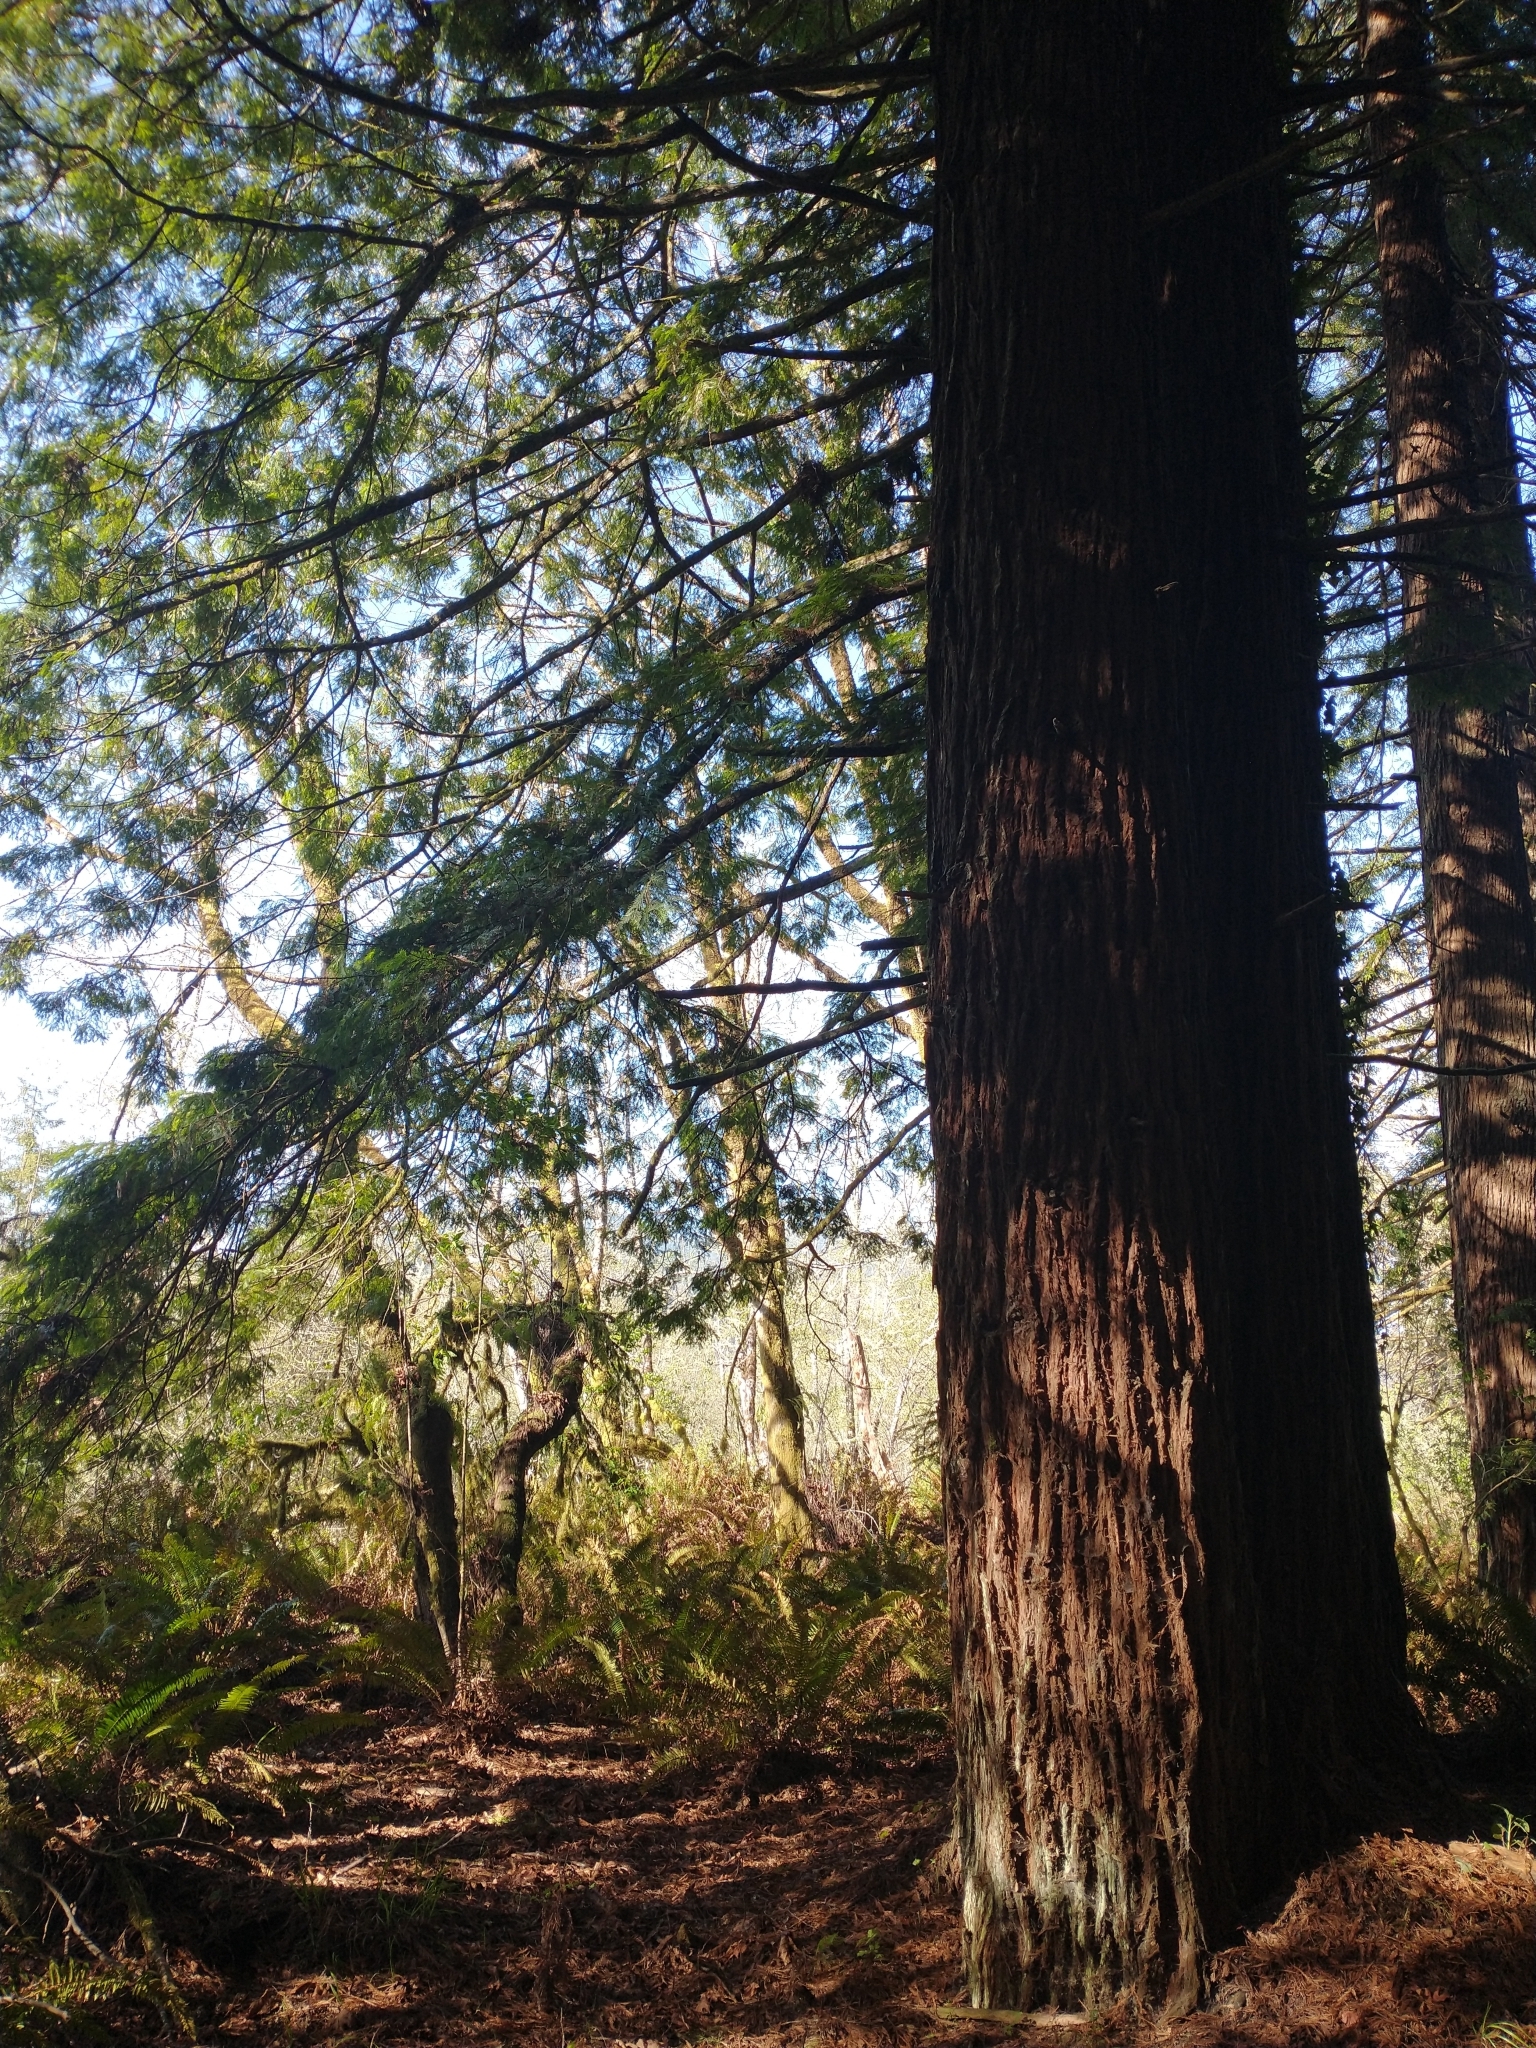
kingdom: Plantae
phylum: Tracheophyta
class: Pinopsida
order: Pinales
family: Cupressaceae
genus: Sequoia
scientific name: Sequoia sempervirens
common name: Coast redwood
